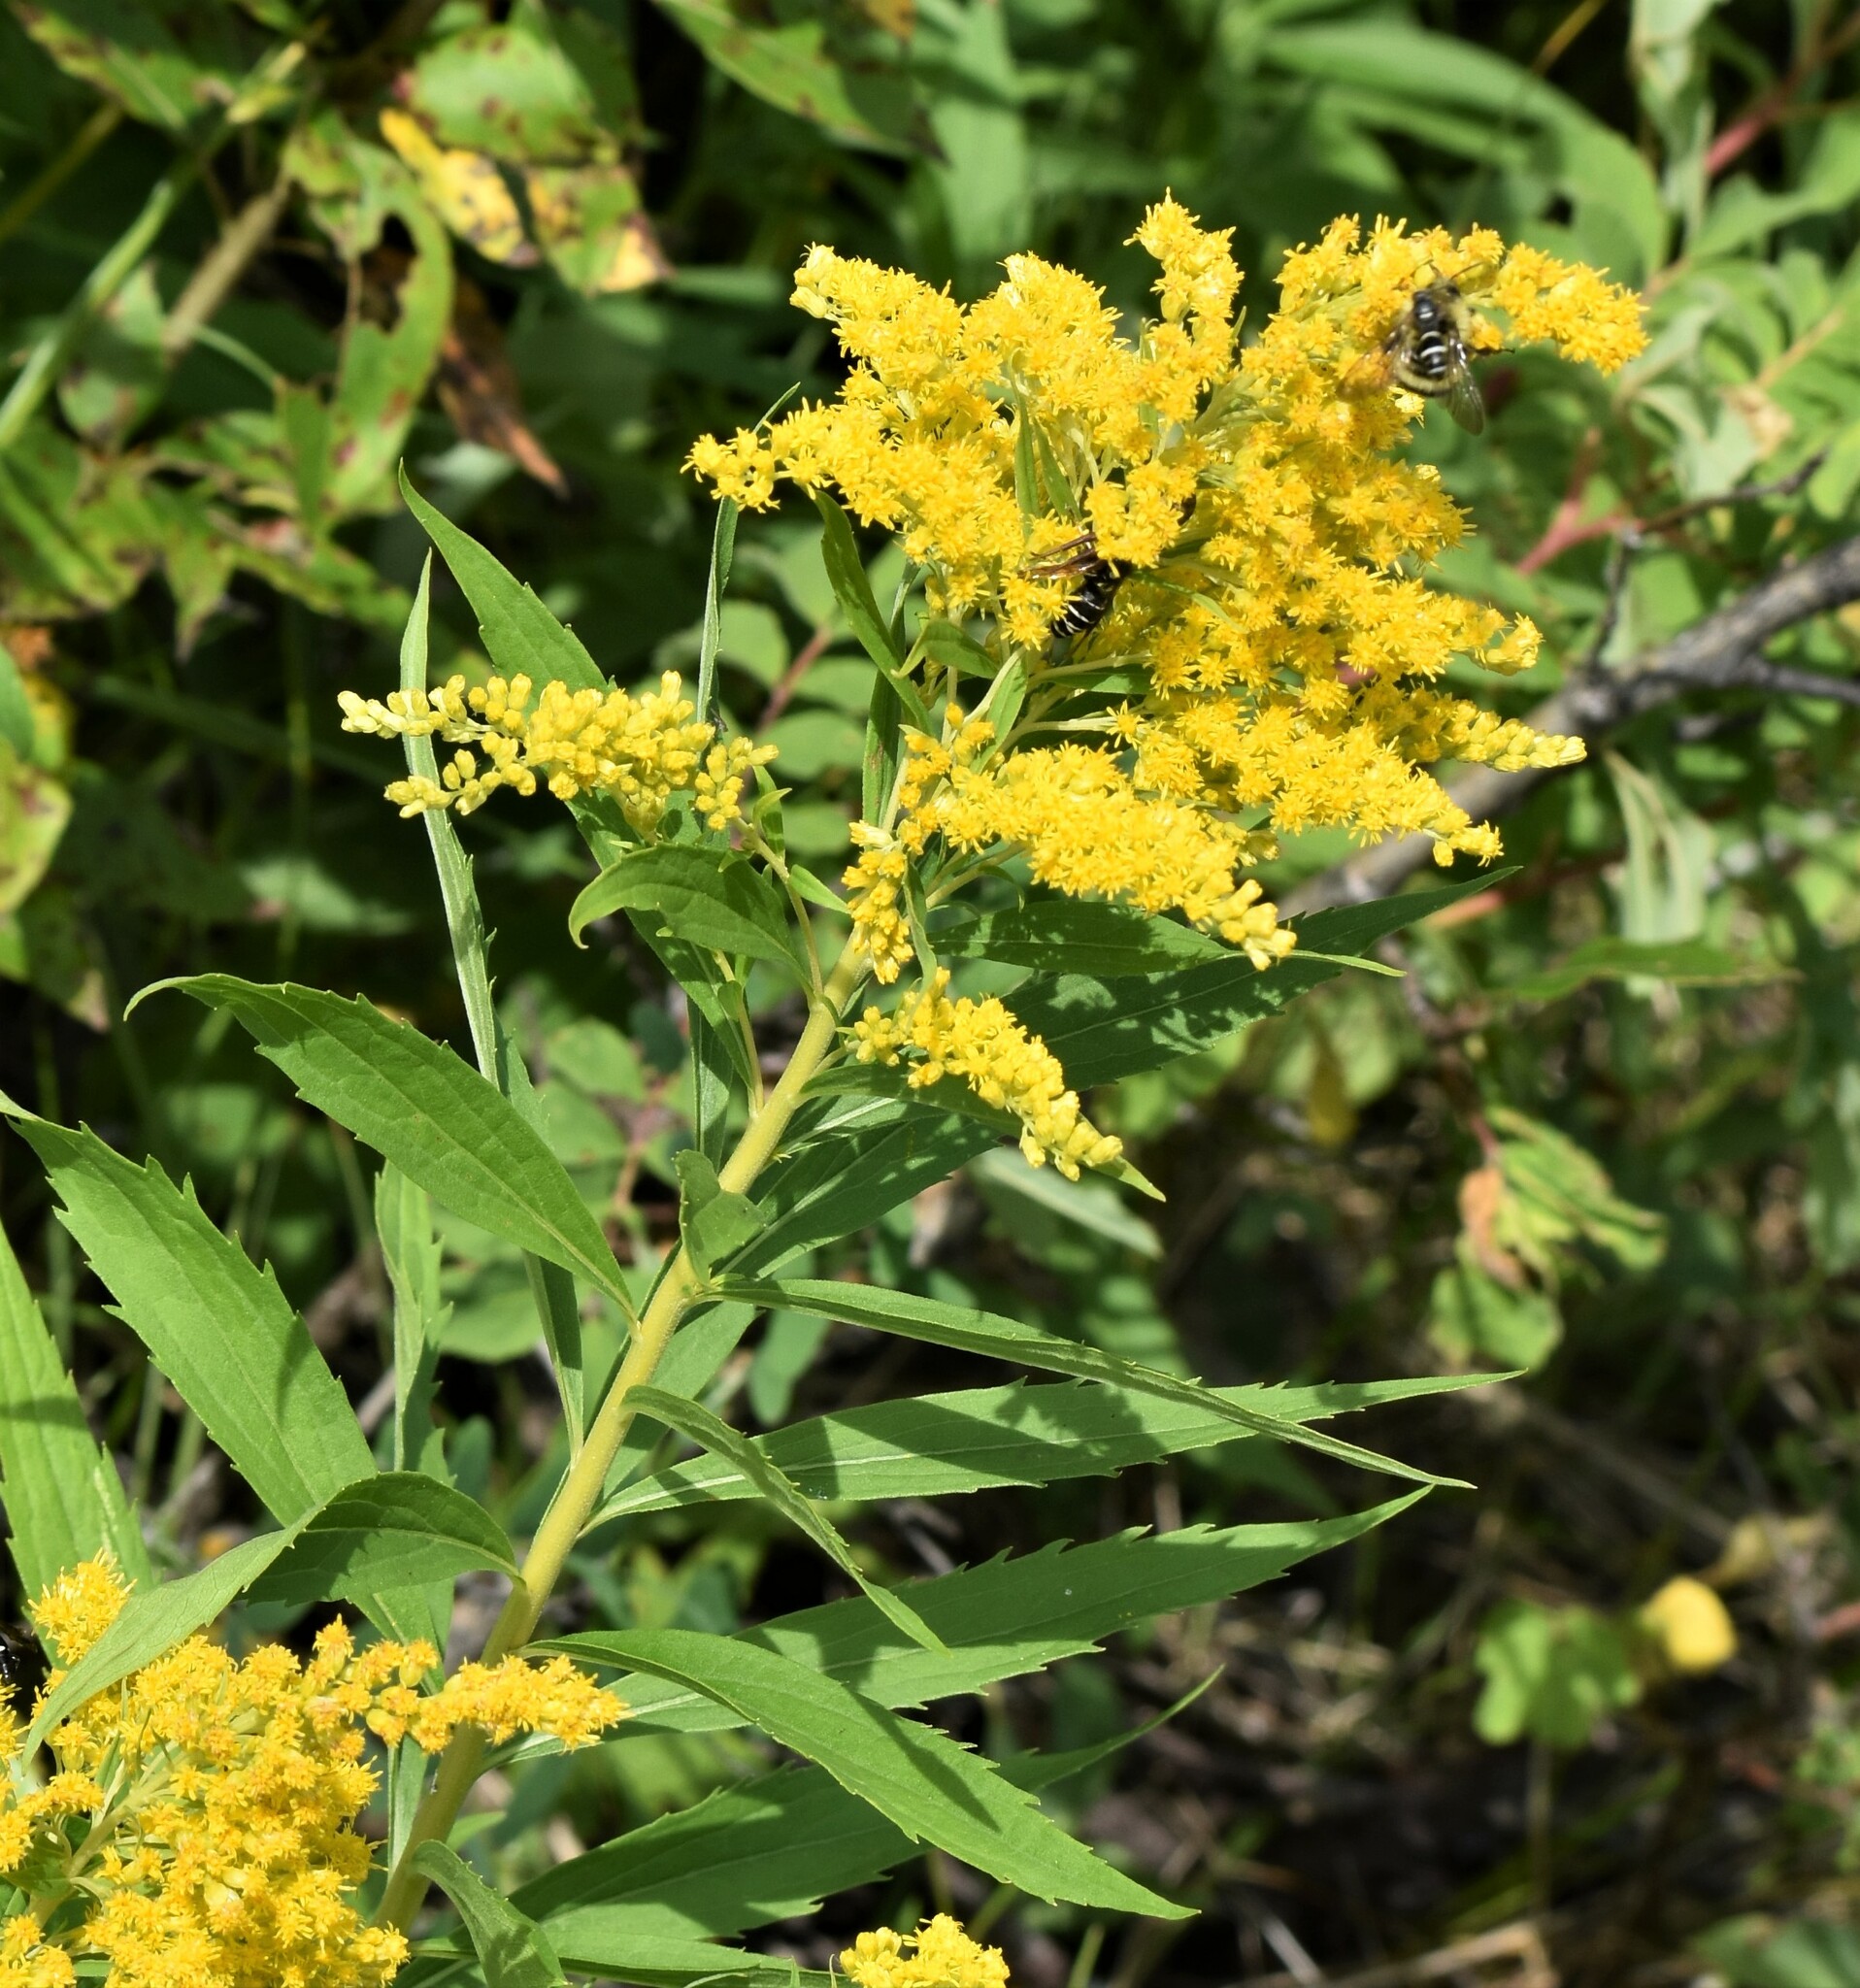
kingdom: Plantae
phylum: Tracheophyta
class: Magnoliopsida
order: Asterales
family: Asteraceae
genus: Solidago
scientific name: Solidago canadensis
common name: Canada goldenrod
